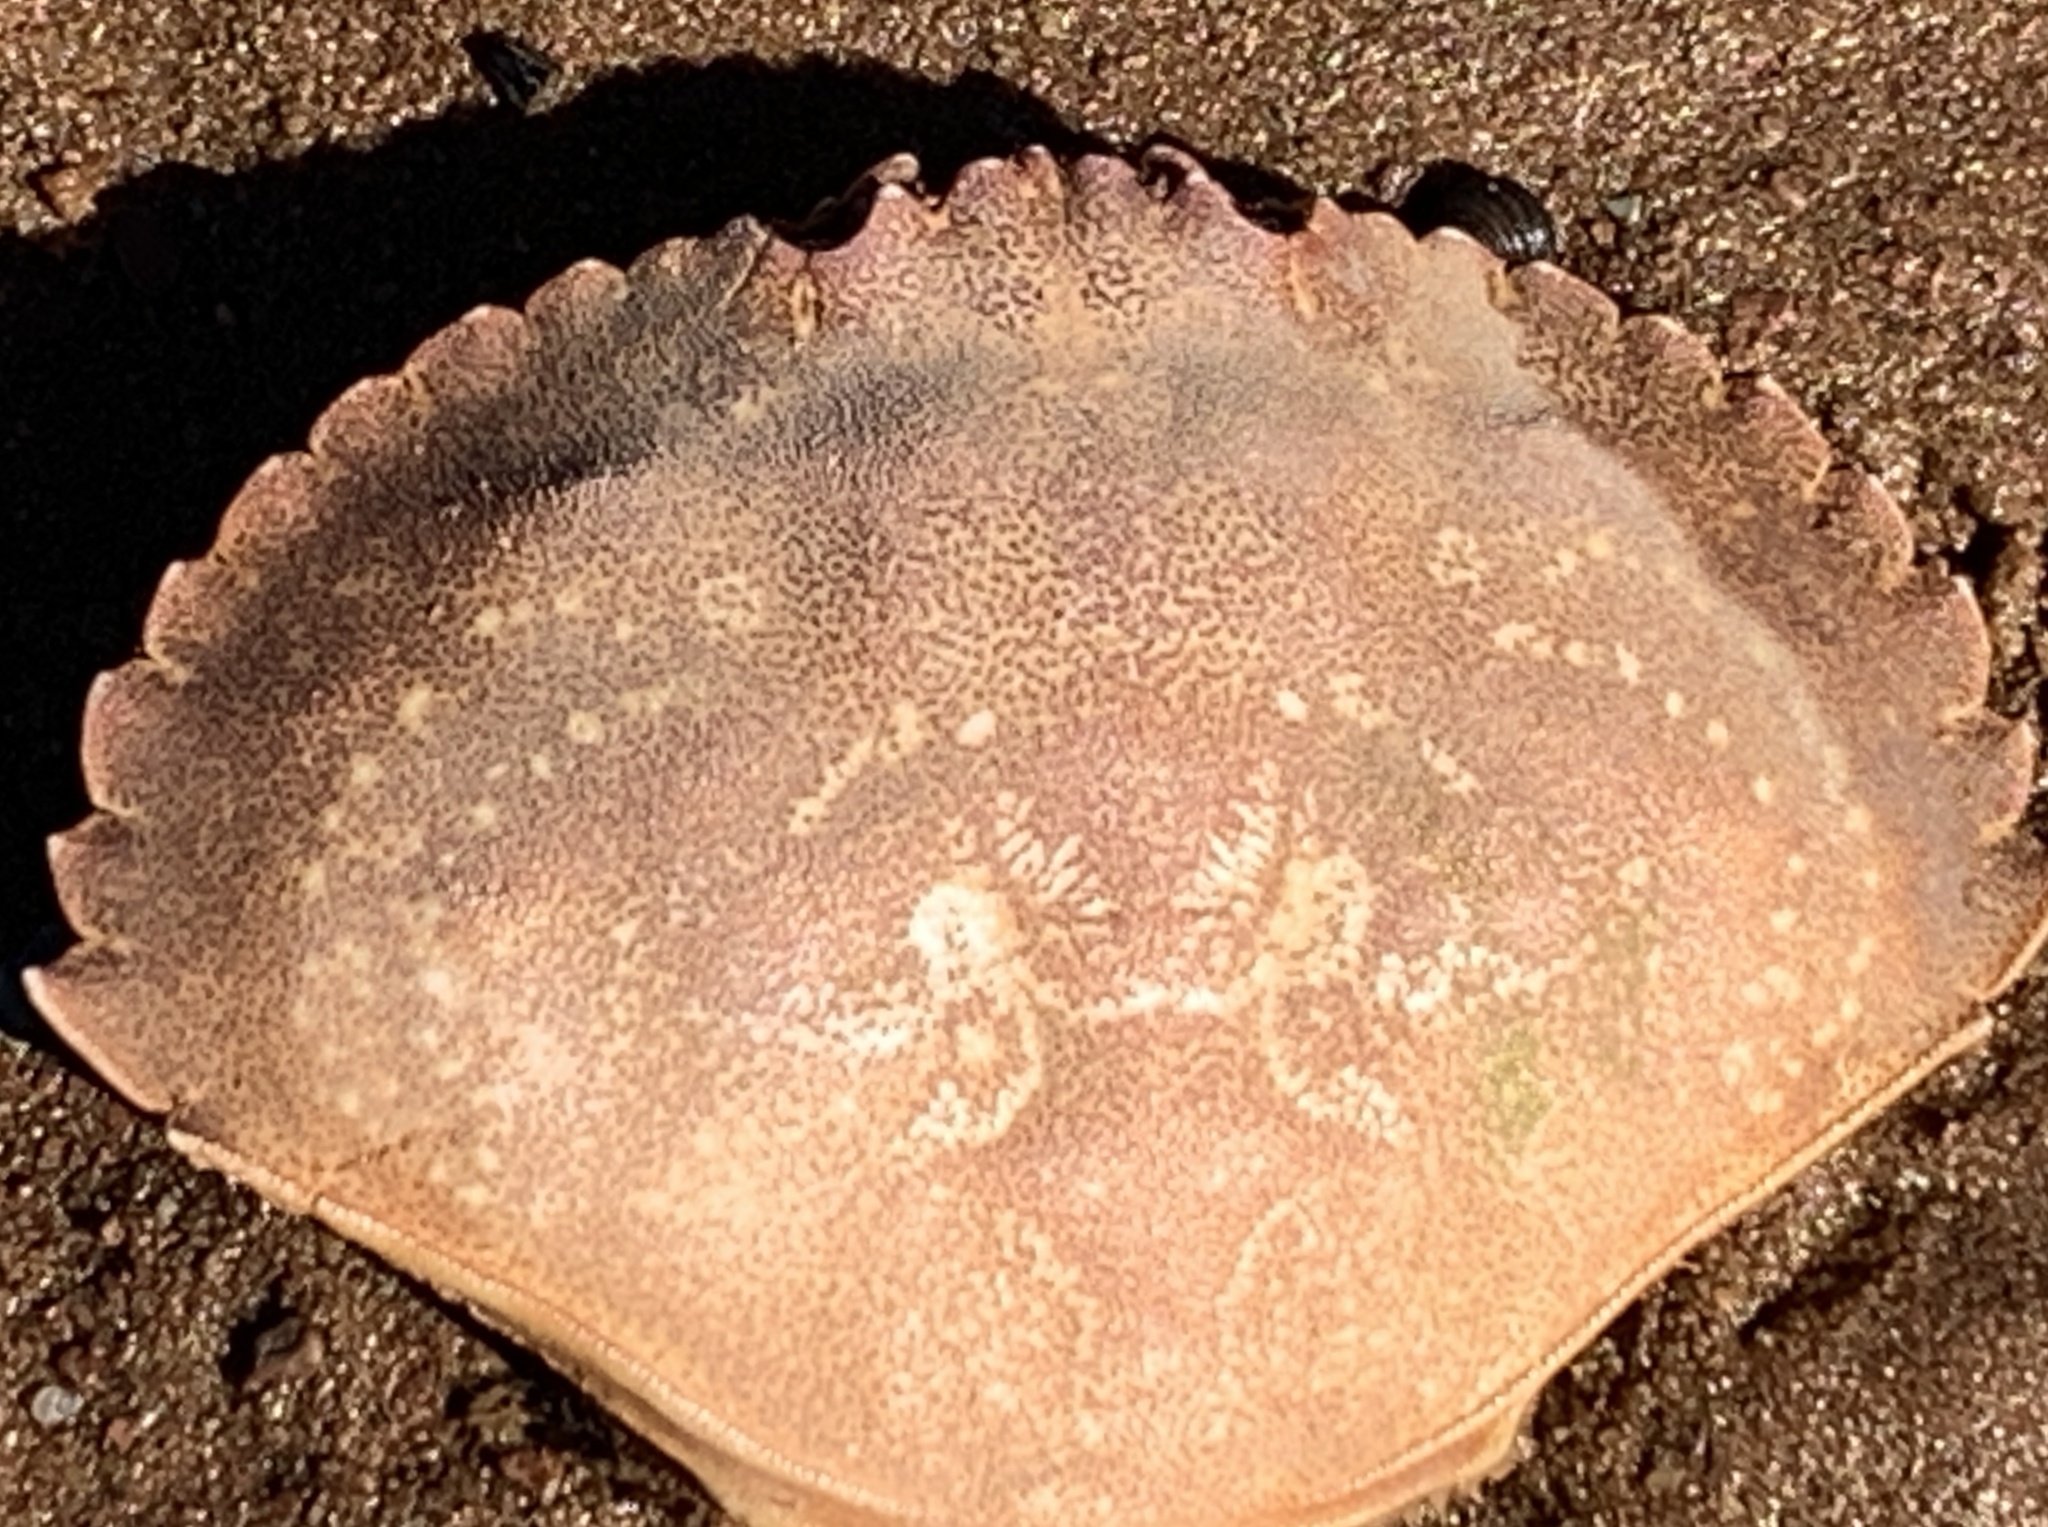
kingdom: Animalia
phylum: Arthropoda
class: Malacostraca
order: Decapoda
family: Cancridae
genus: Cancer
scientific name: Cancer irroratus
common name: Atlantic rock crab
